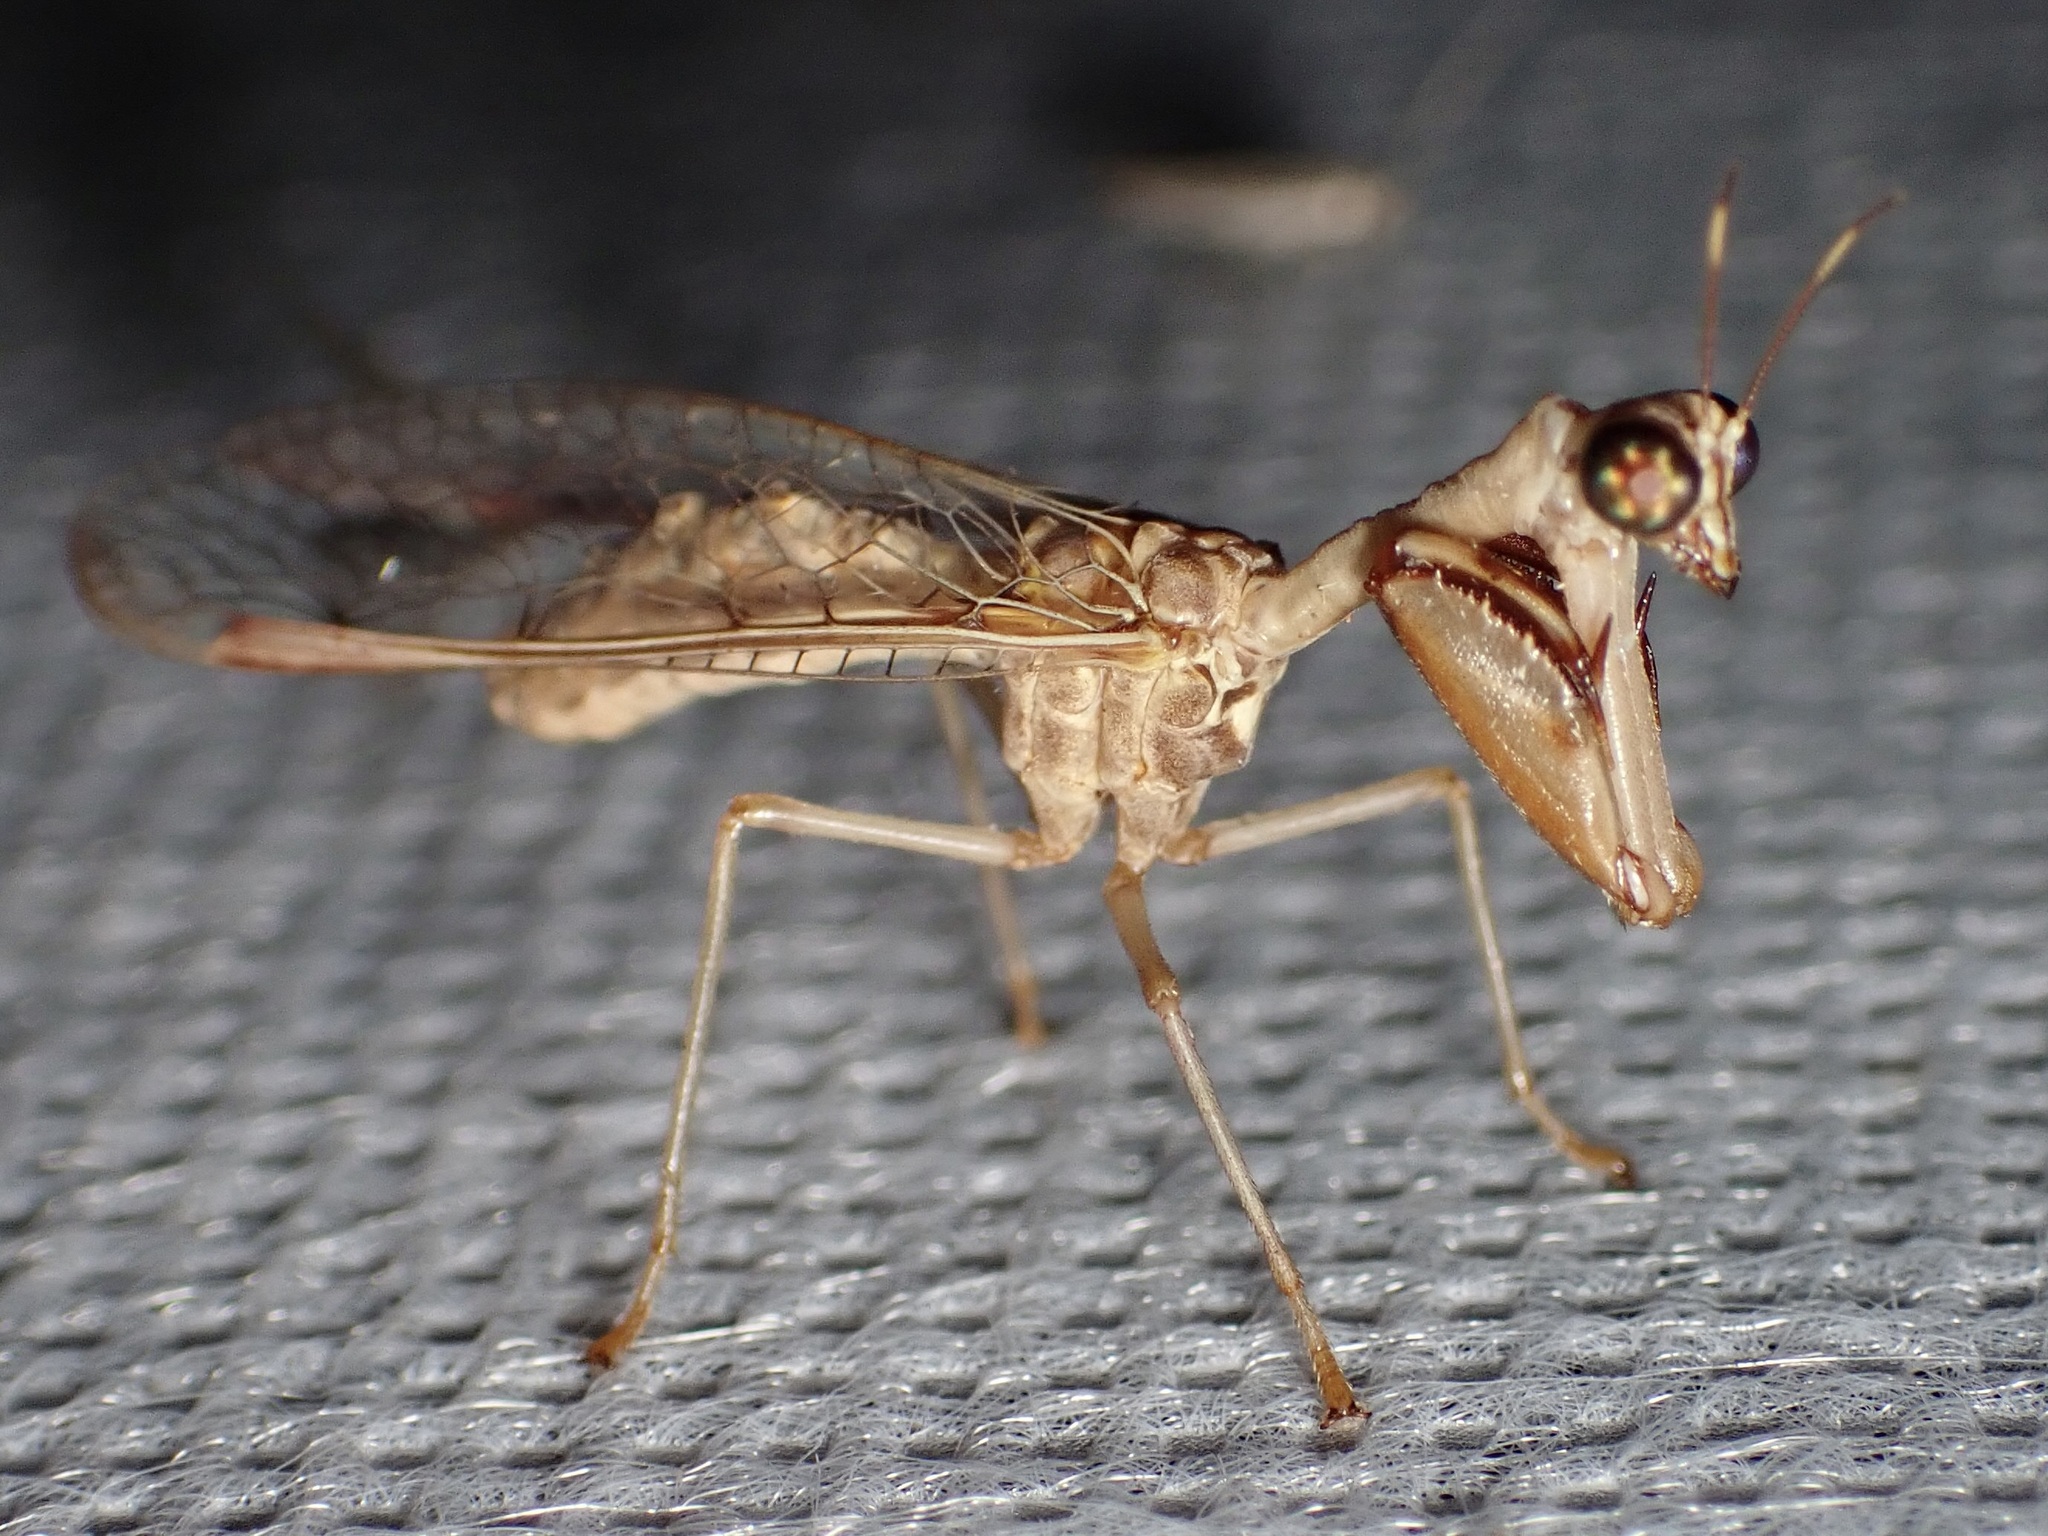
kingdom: Animalia
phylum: Arthropoda
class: Insecta
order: Neuroptera
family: Mantispidae
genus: Dicromantispa
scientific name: Dicromantispa interrupta
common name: Four-spotted mantidfly
